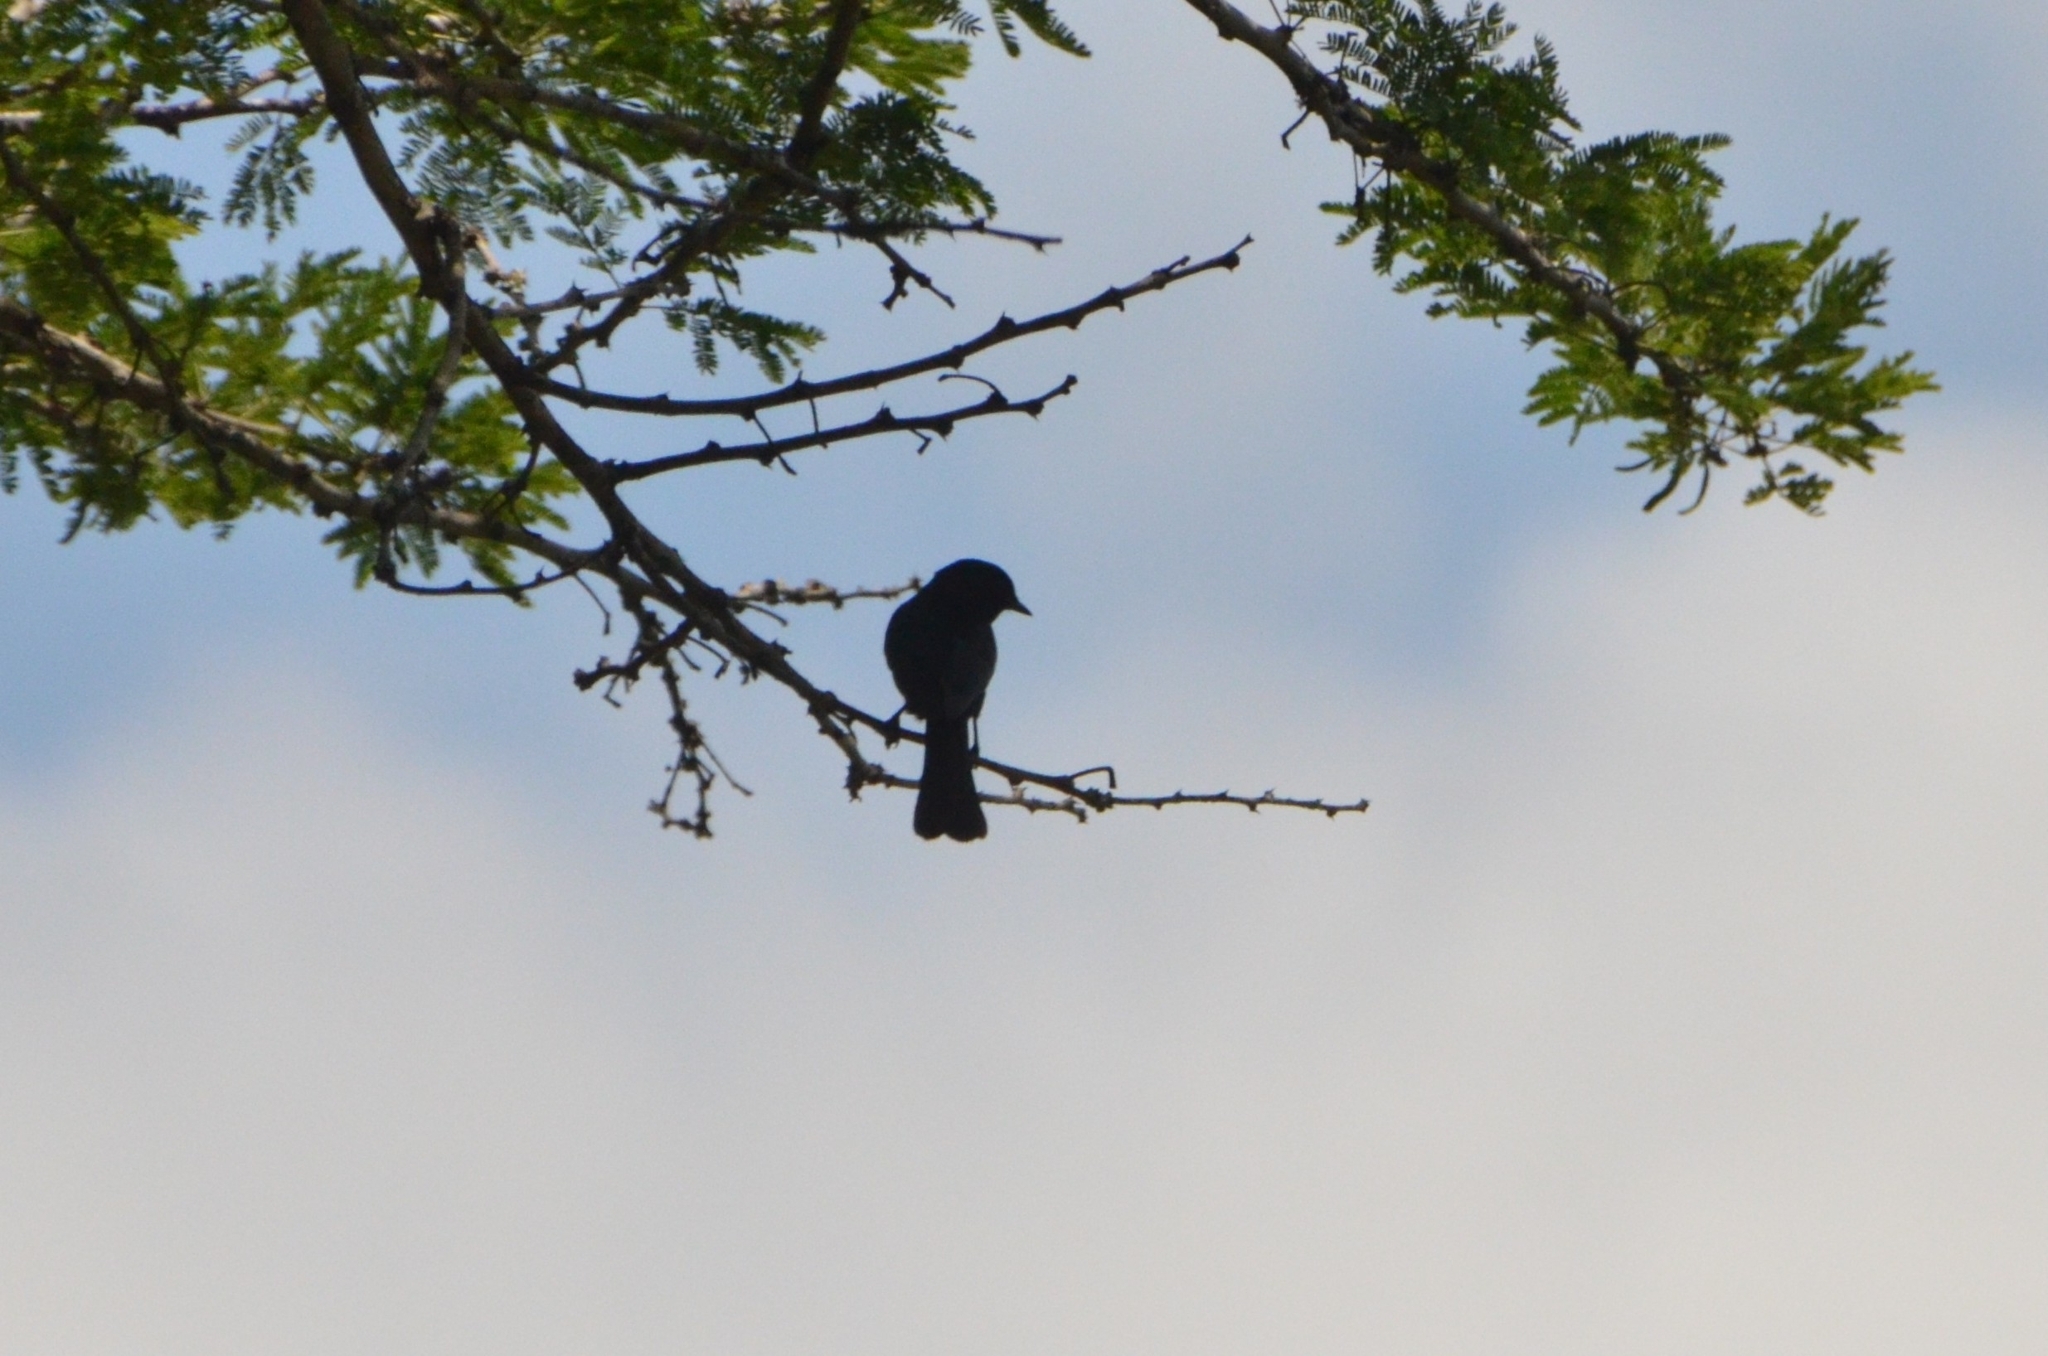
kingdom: Animalia
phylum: Chordata
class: Aves
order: Passeriformes
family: Muscicapidae
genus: Melaenornis
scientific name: Melaenornis pammelaina
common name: Southern black flycatcher
